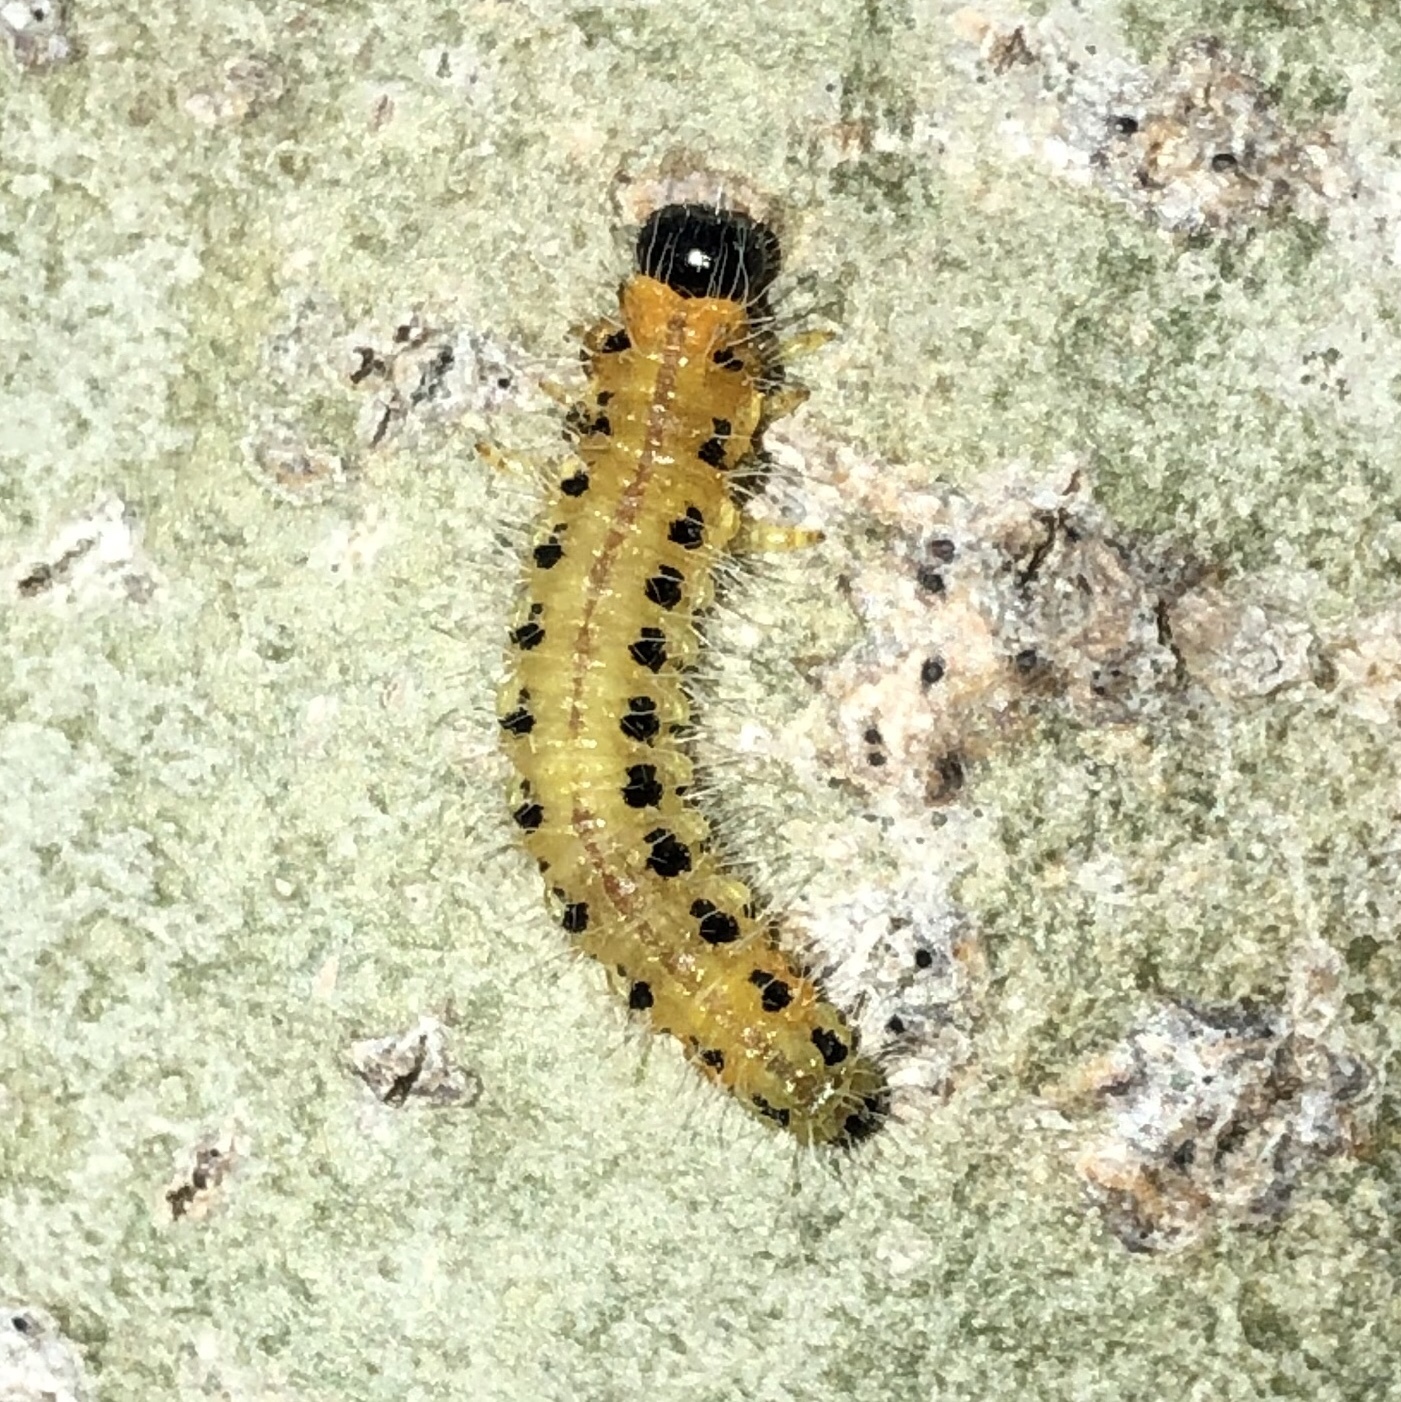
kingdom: Animalia
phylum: Arthropoda
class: Insecta
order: Hymenoptera
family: Tenthredinidae
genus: Cladius
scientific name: Cladius grandis
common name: Common sawfly
